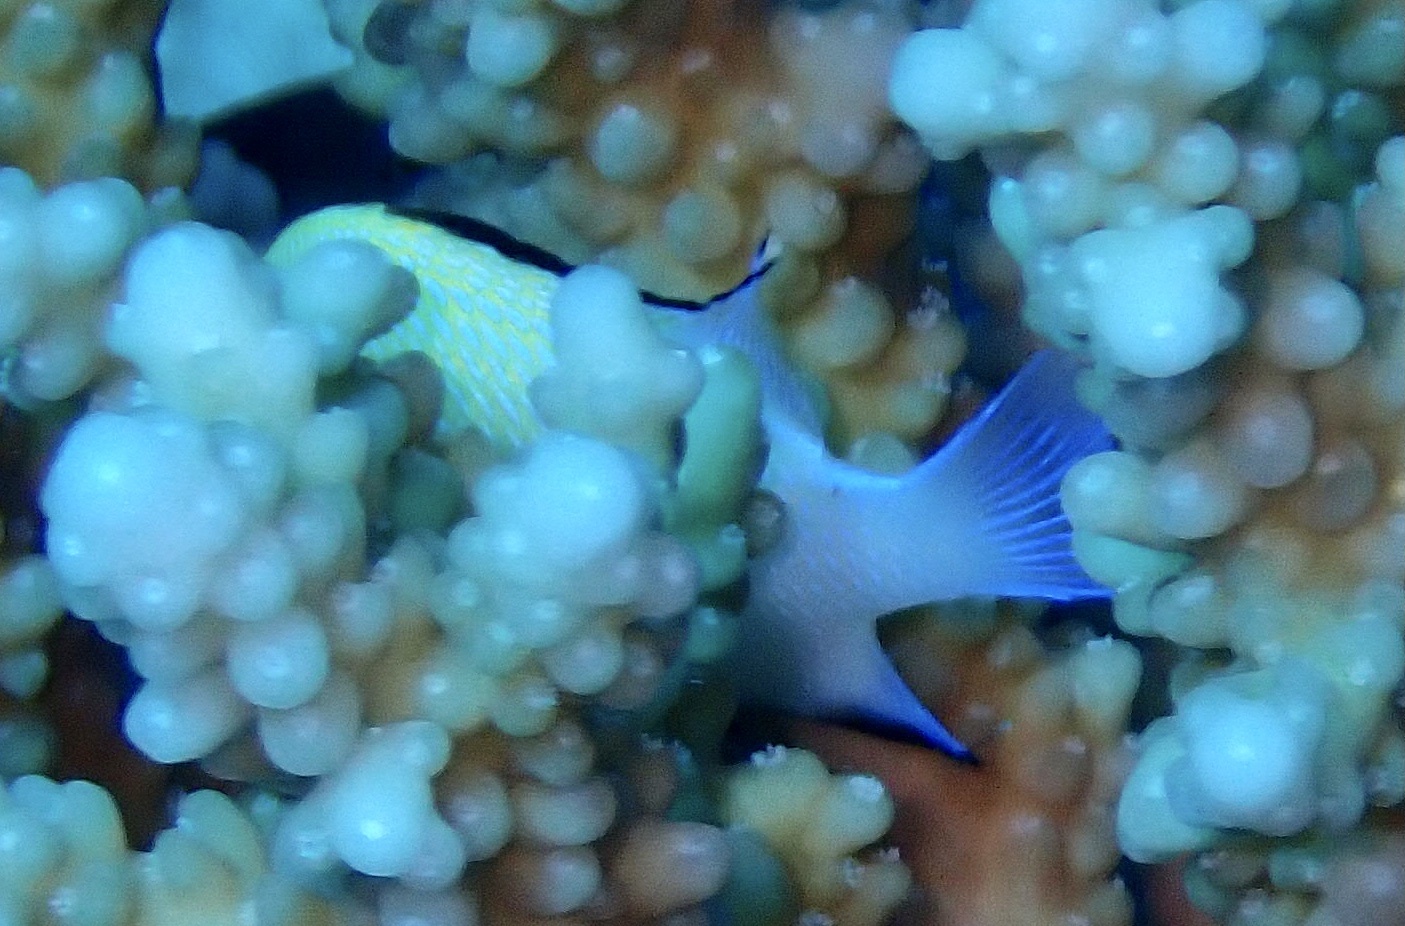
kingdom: Animalia
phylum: Chordata
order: Perciformes
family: Pomacentridae
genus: Dascyllus
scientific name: Dascyllus marginatus
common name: Red sea dascyllus
